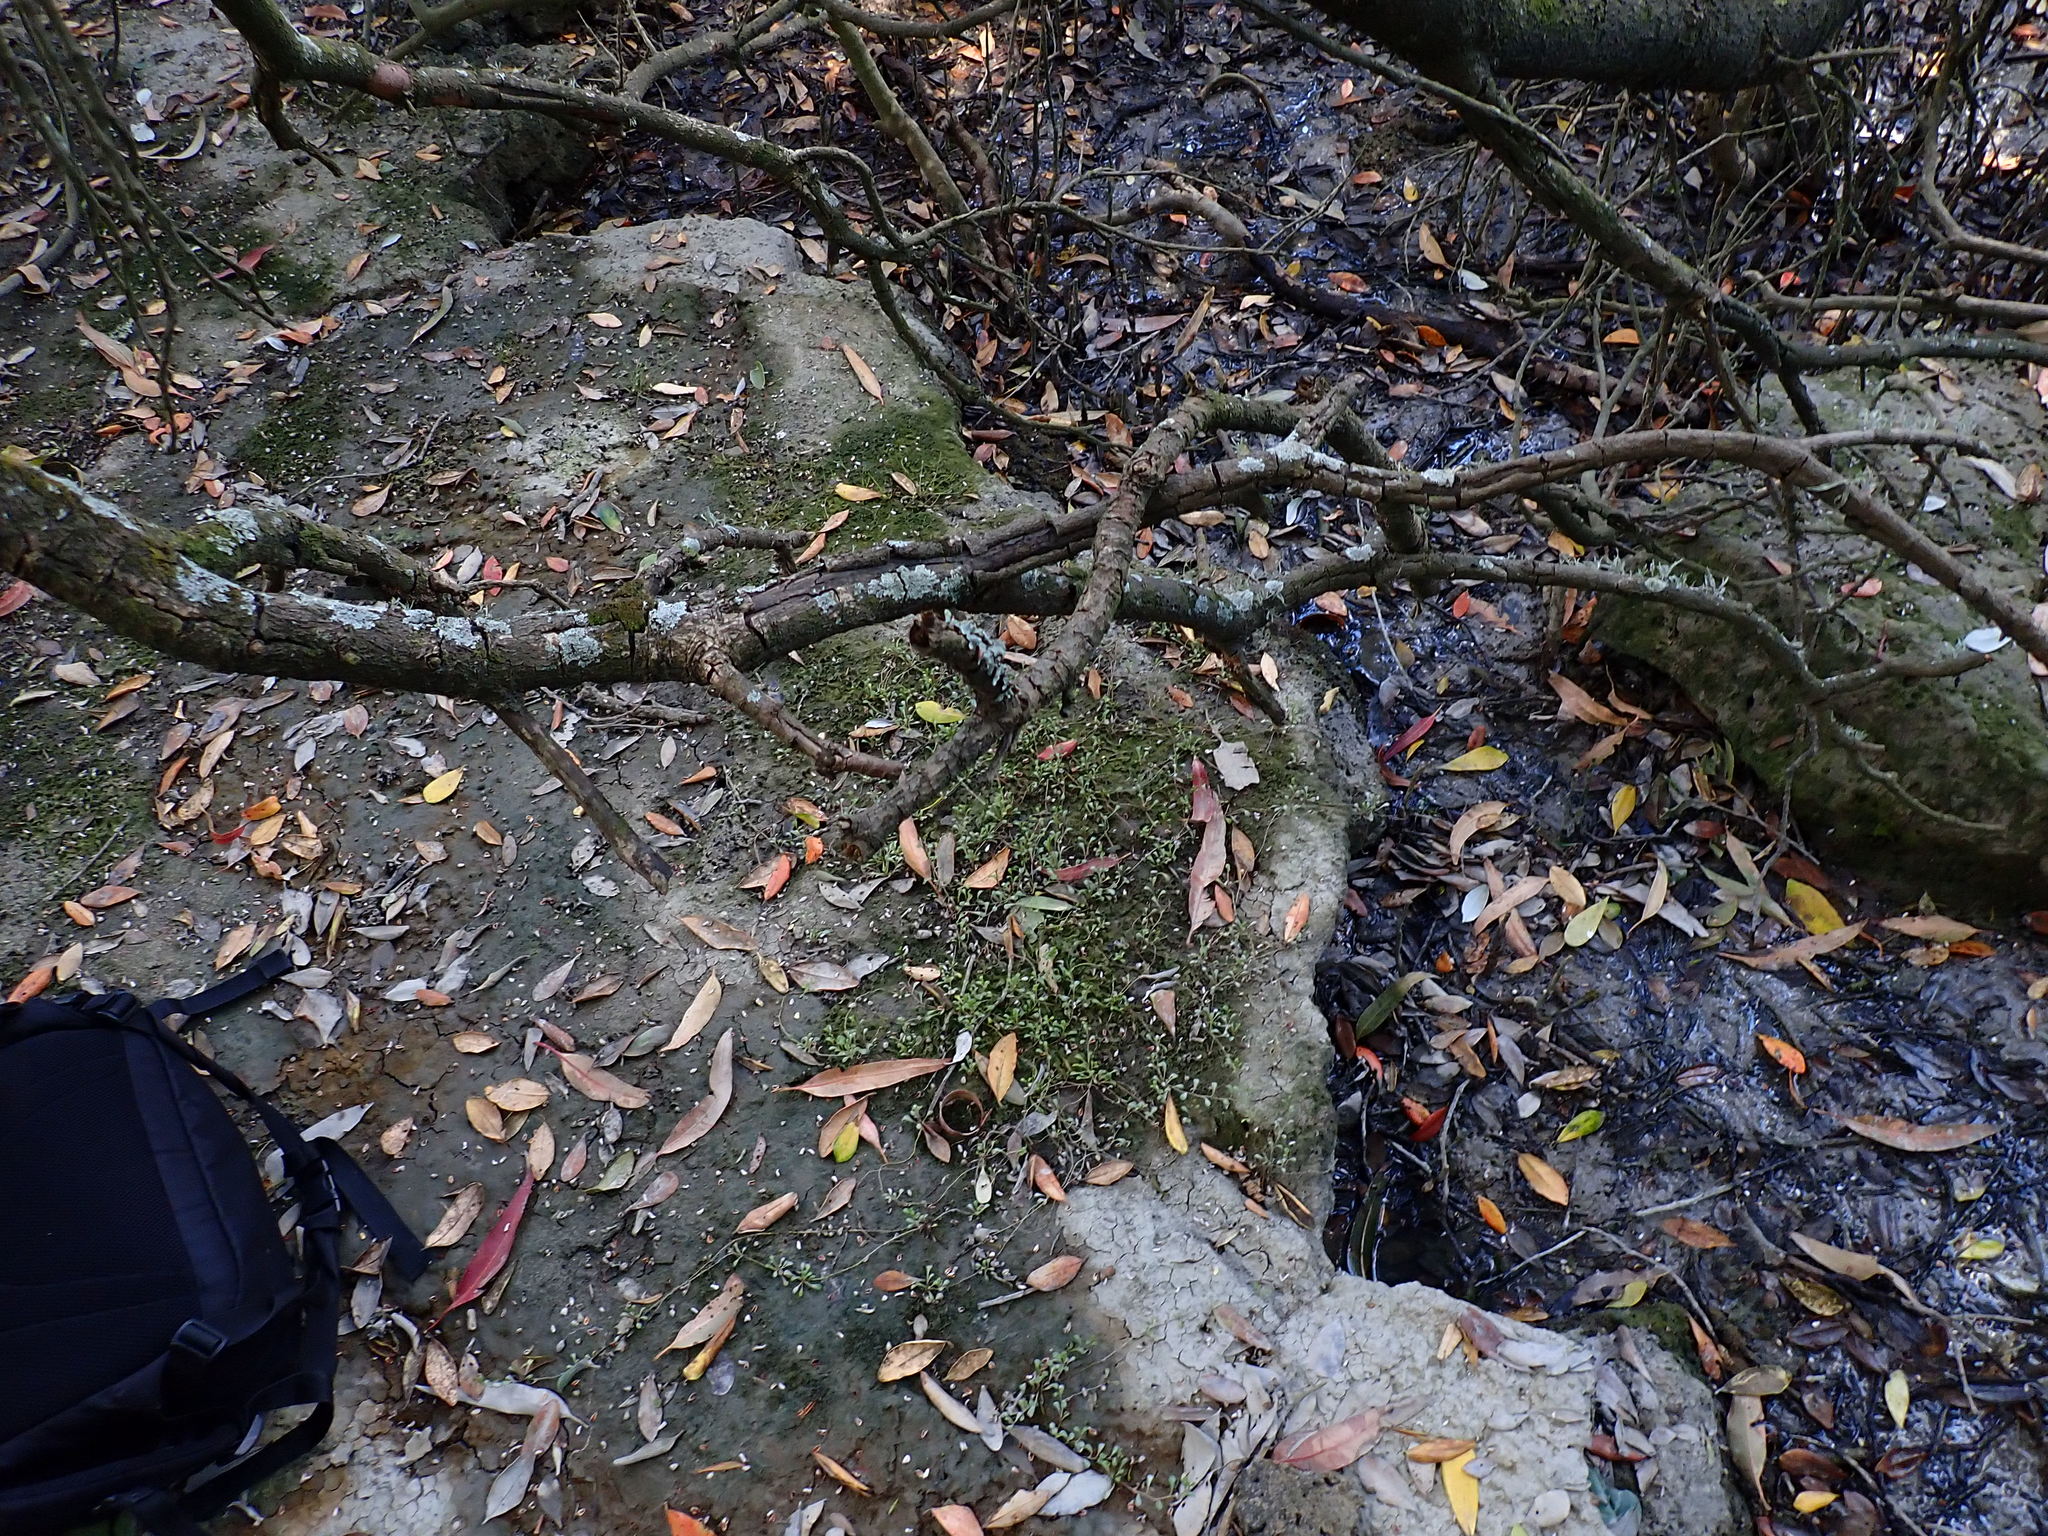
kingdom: Animalia
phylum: Mollusca
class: Gastropoda
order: Littorinimorpha
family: Tateidae
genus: Potamopyrgus
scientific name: Potamopyrgus estuarinus
